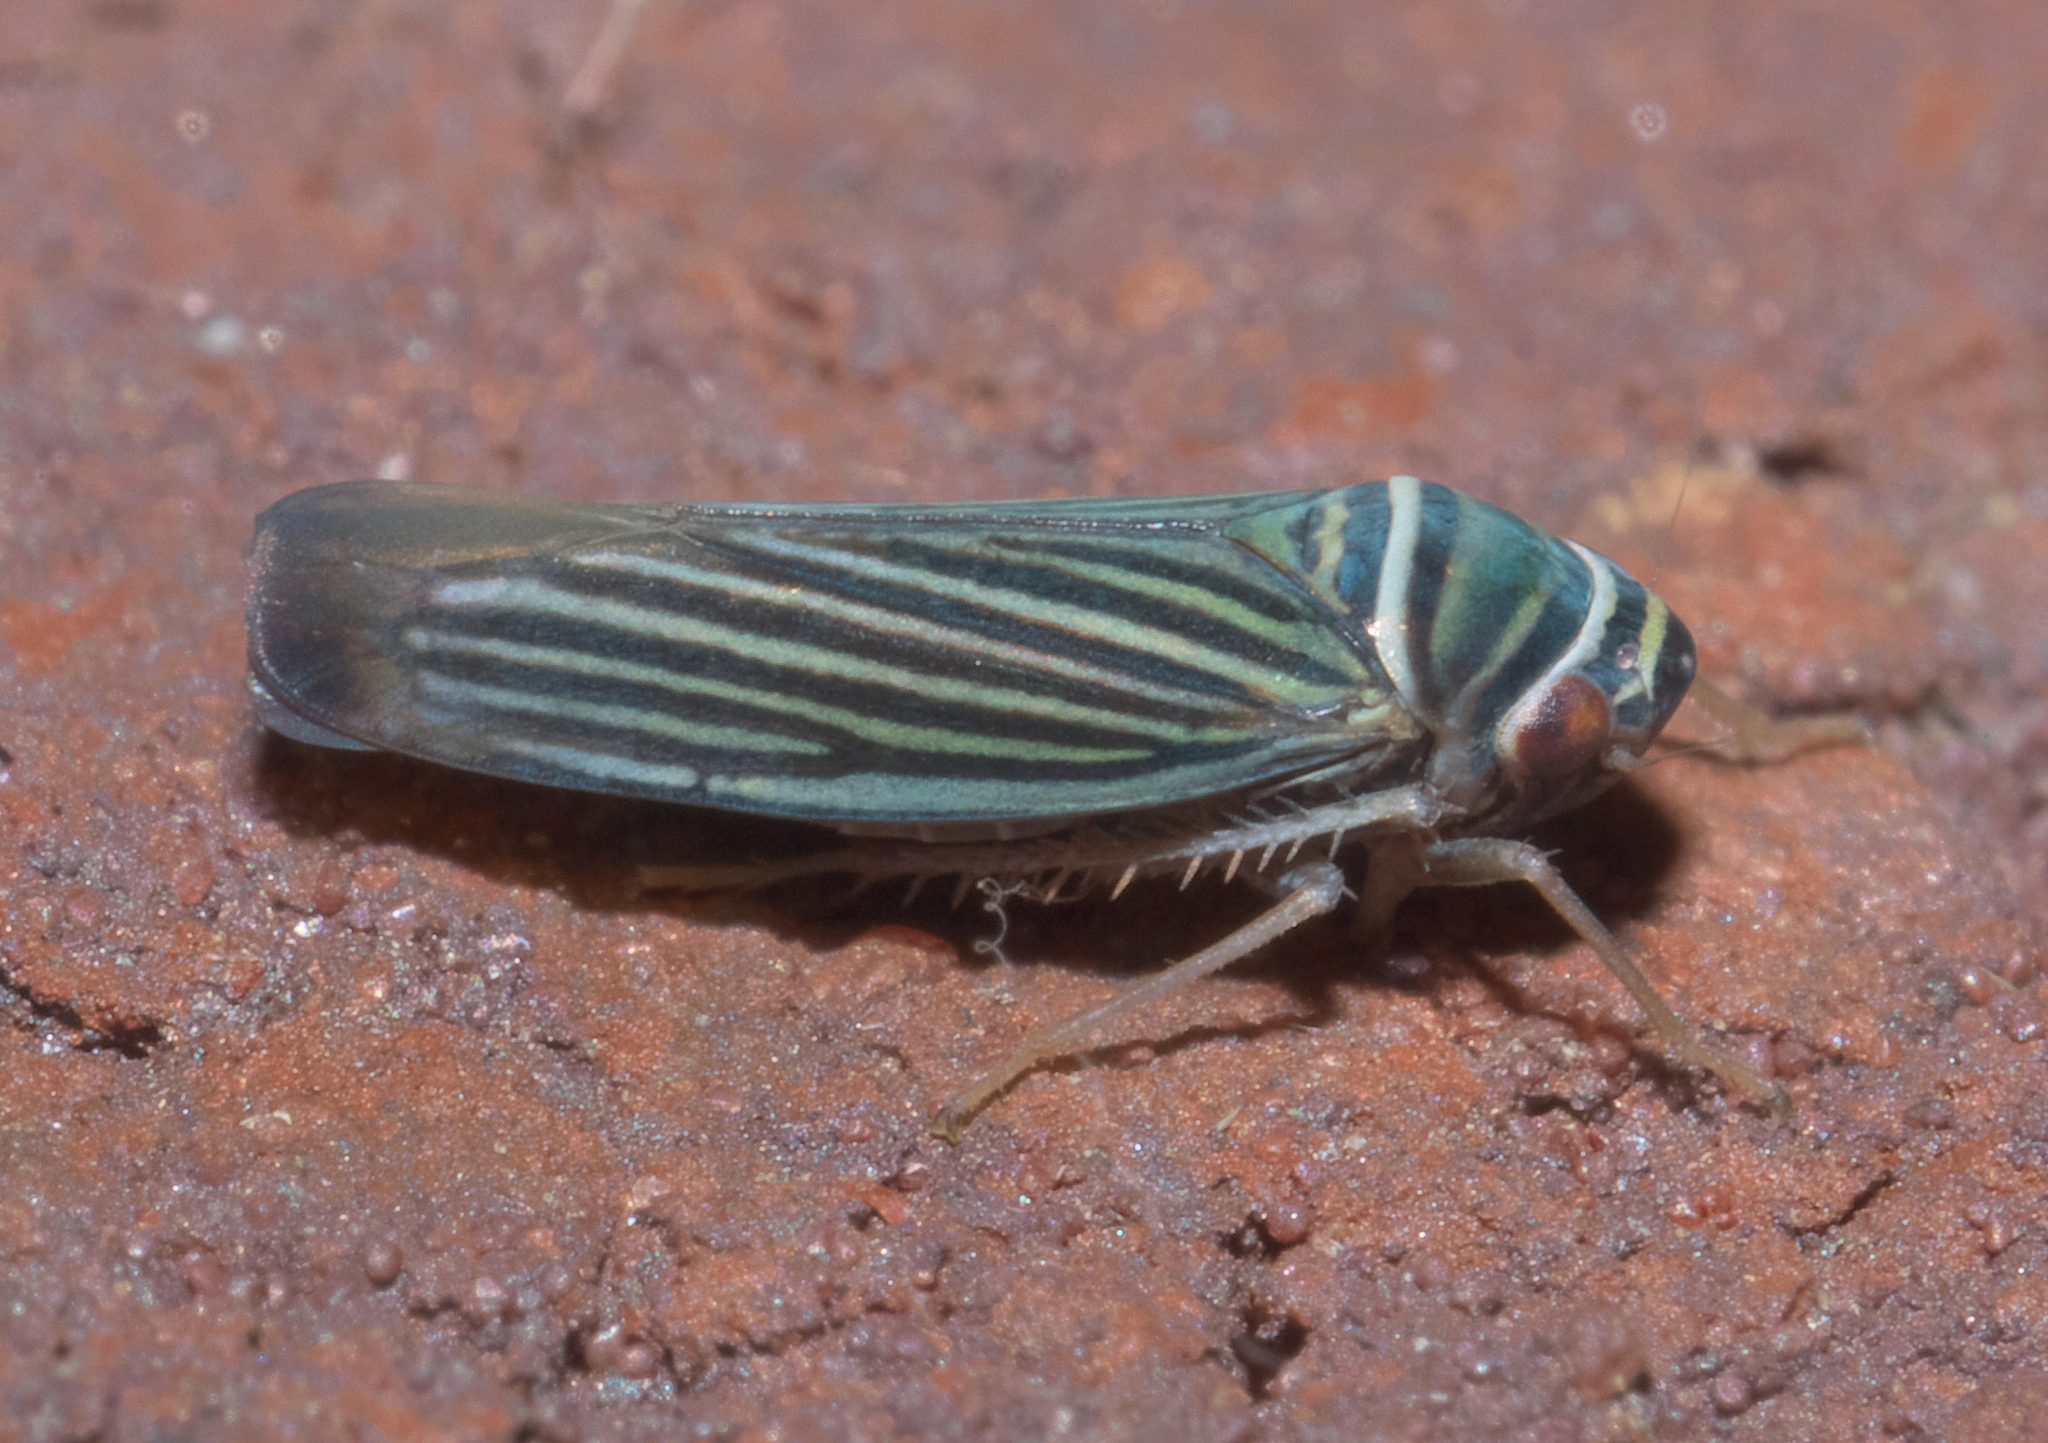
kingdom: Animalia
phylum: Arthropoda
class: Insecta
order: Hemiptera
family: Cicadellidae
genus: Tylozygus
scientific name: Tylozygus bifidus
